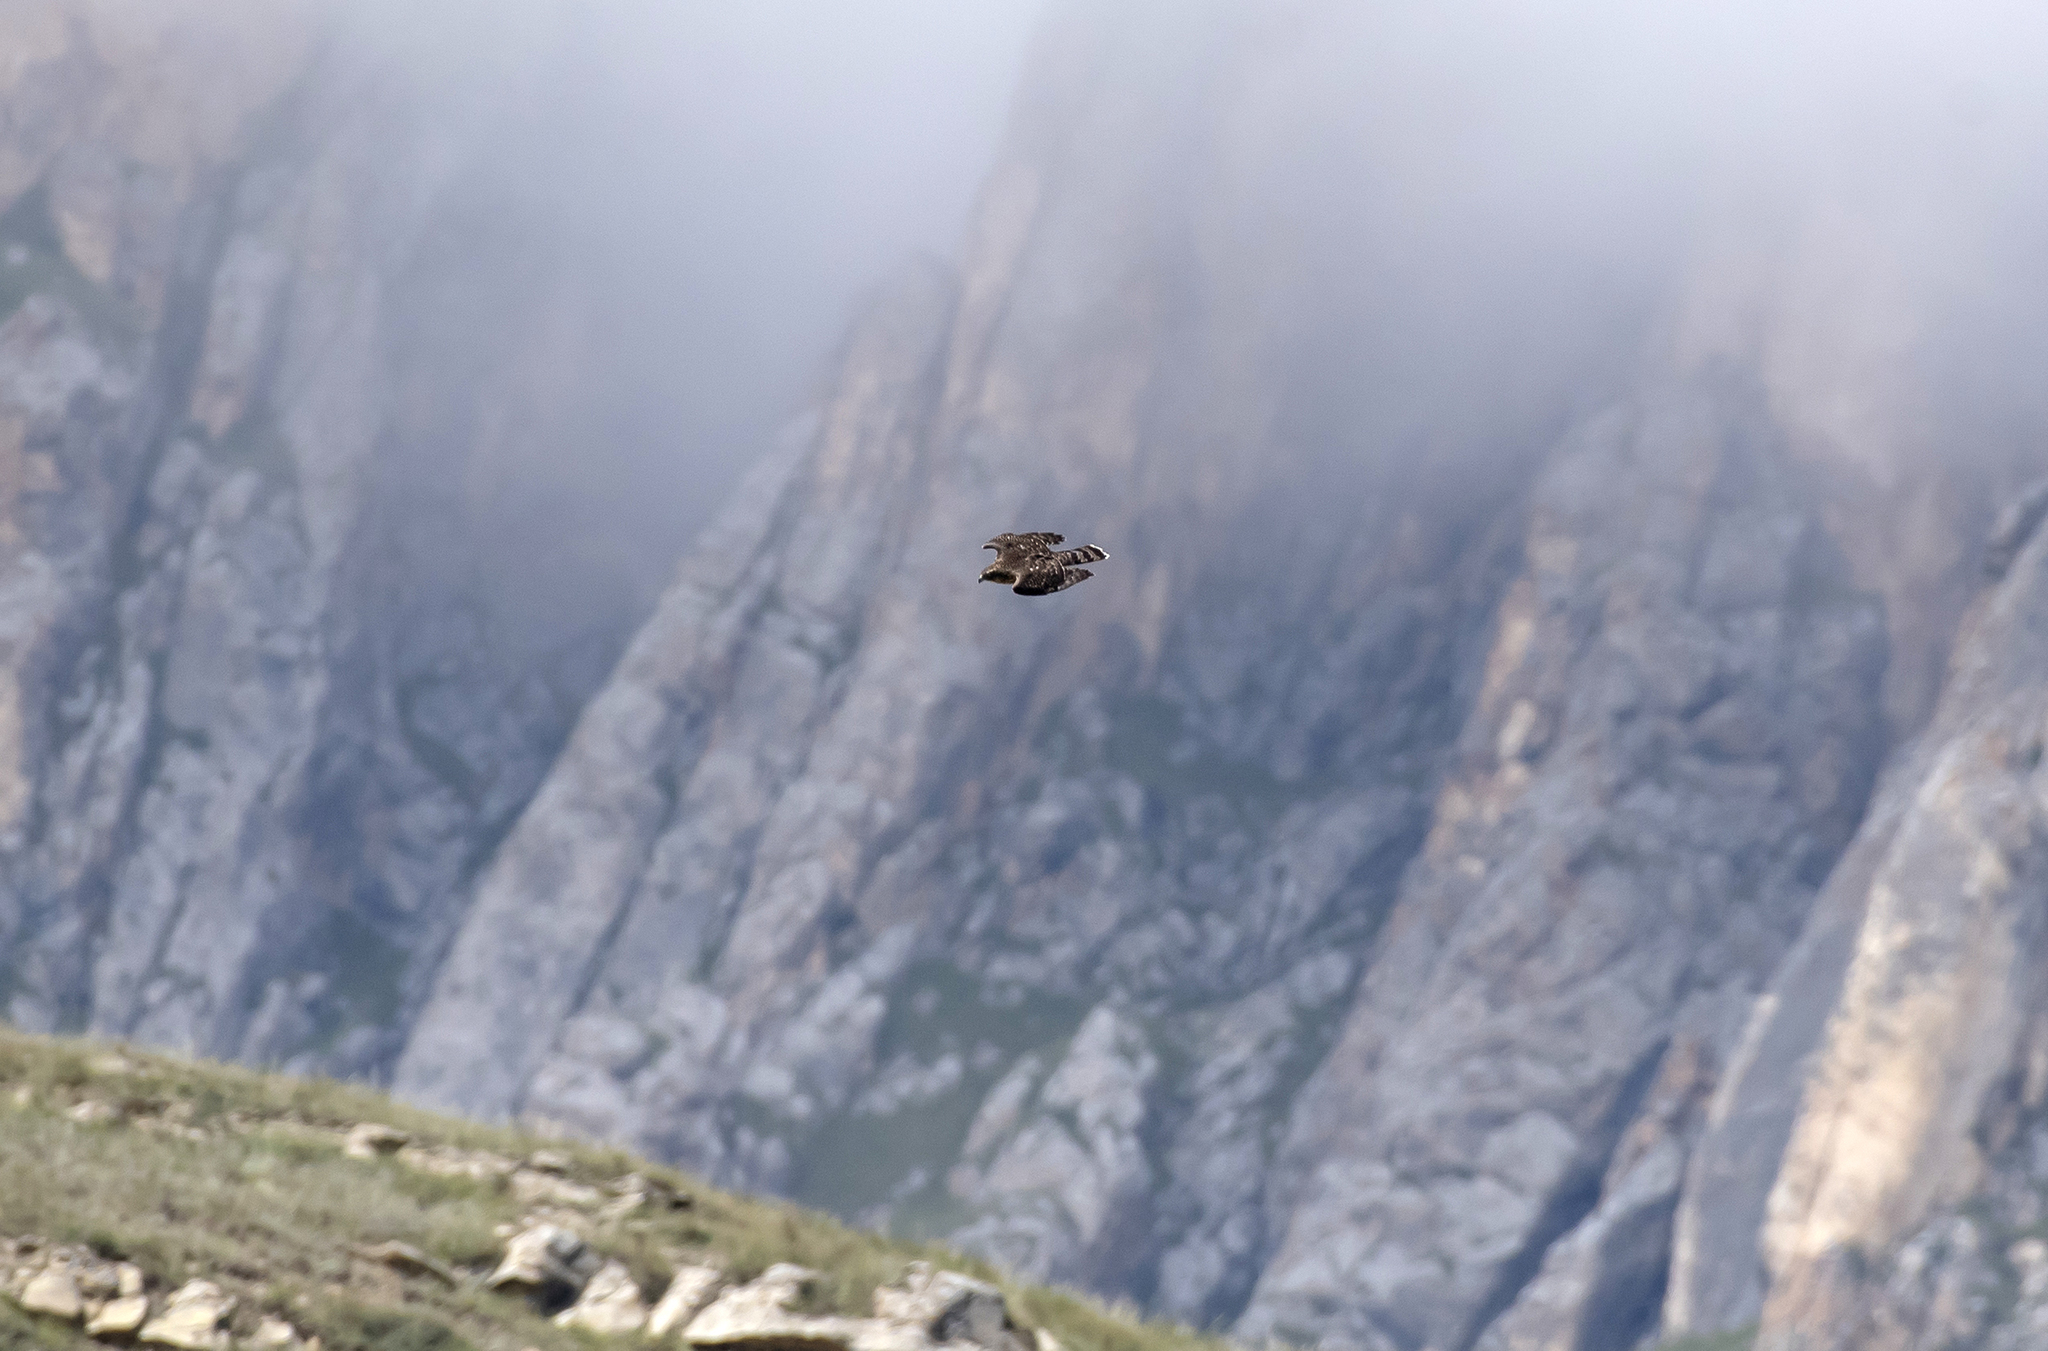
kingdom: Animalia
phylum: Chordata
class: Aves
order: Accipitriformes
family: Accipitridae
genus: Accipiter
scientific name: Accipiter gentilis
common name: Northern goshawk
